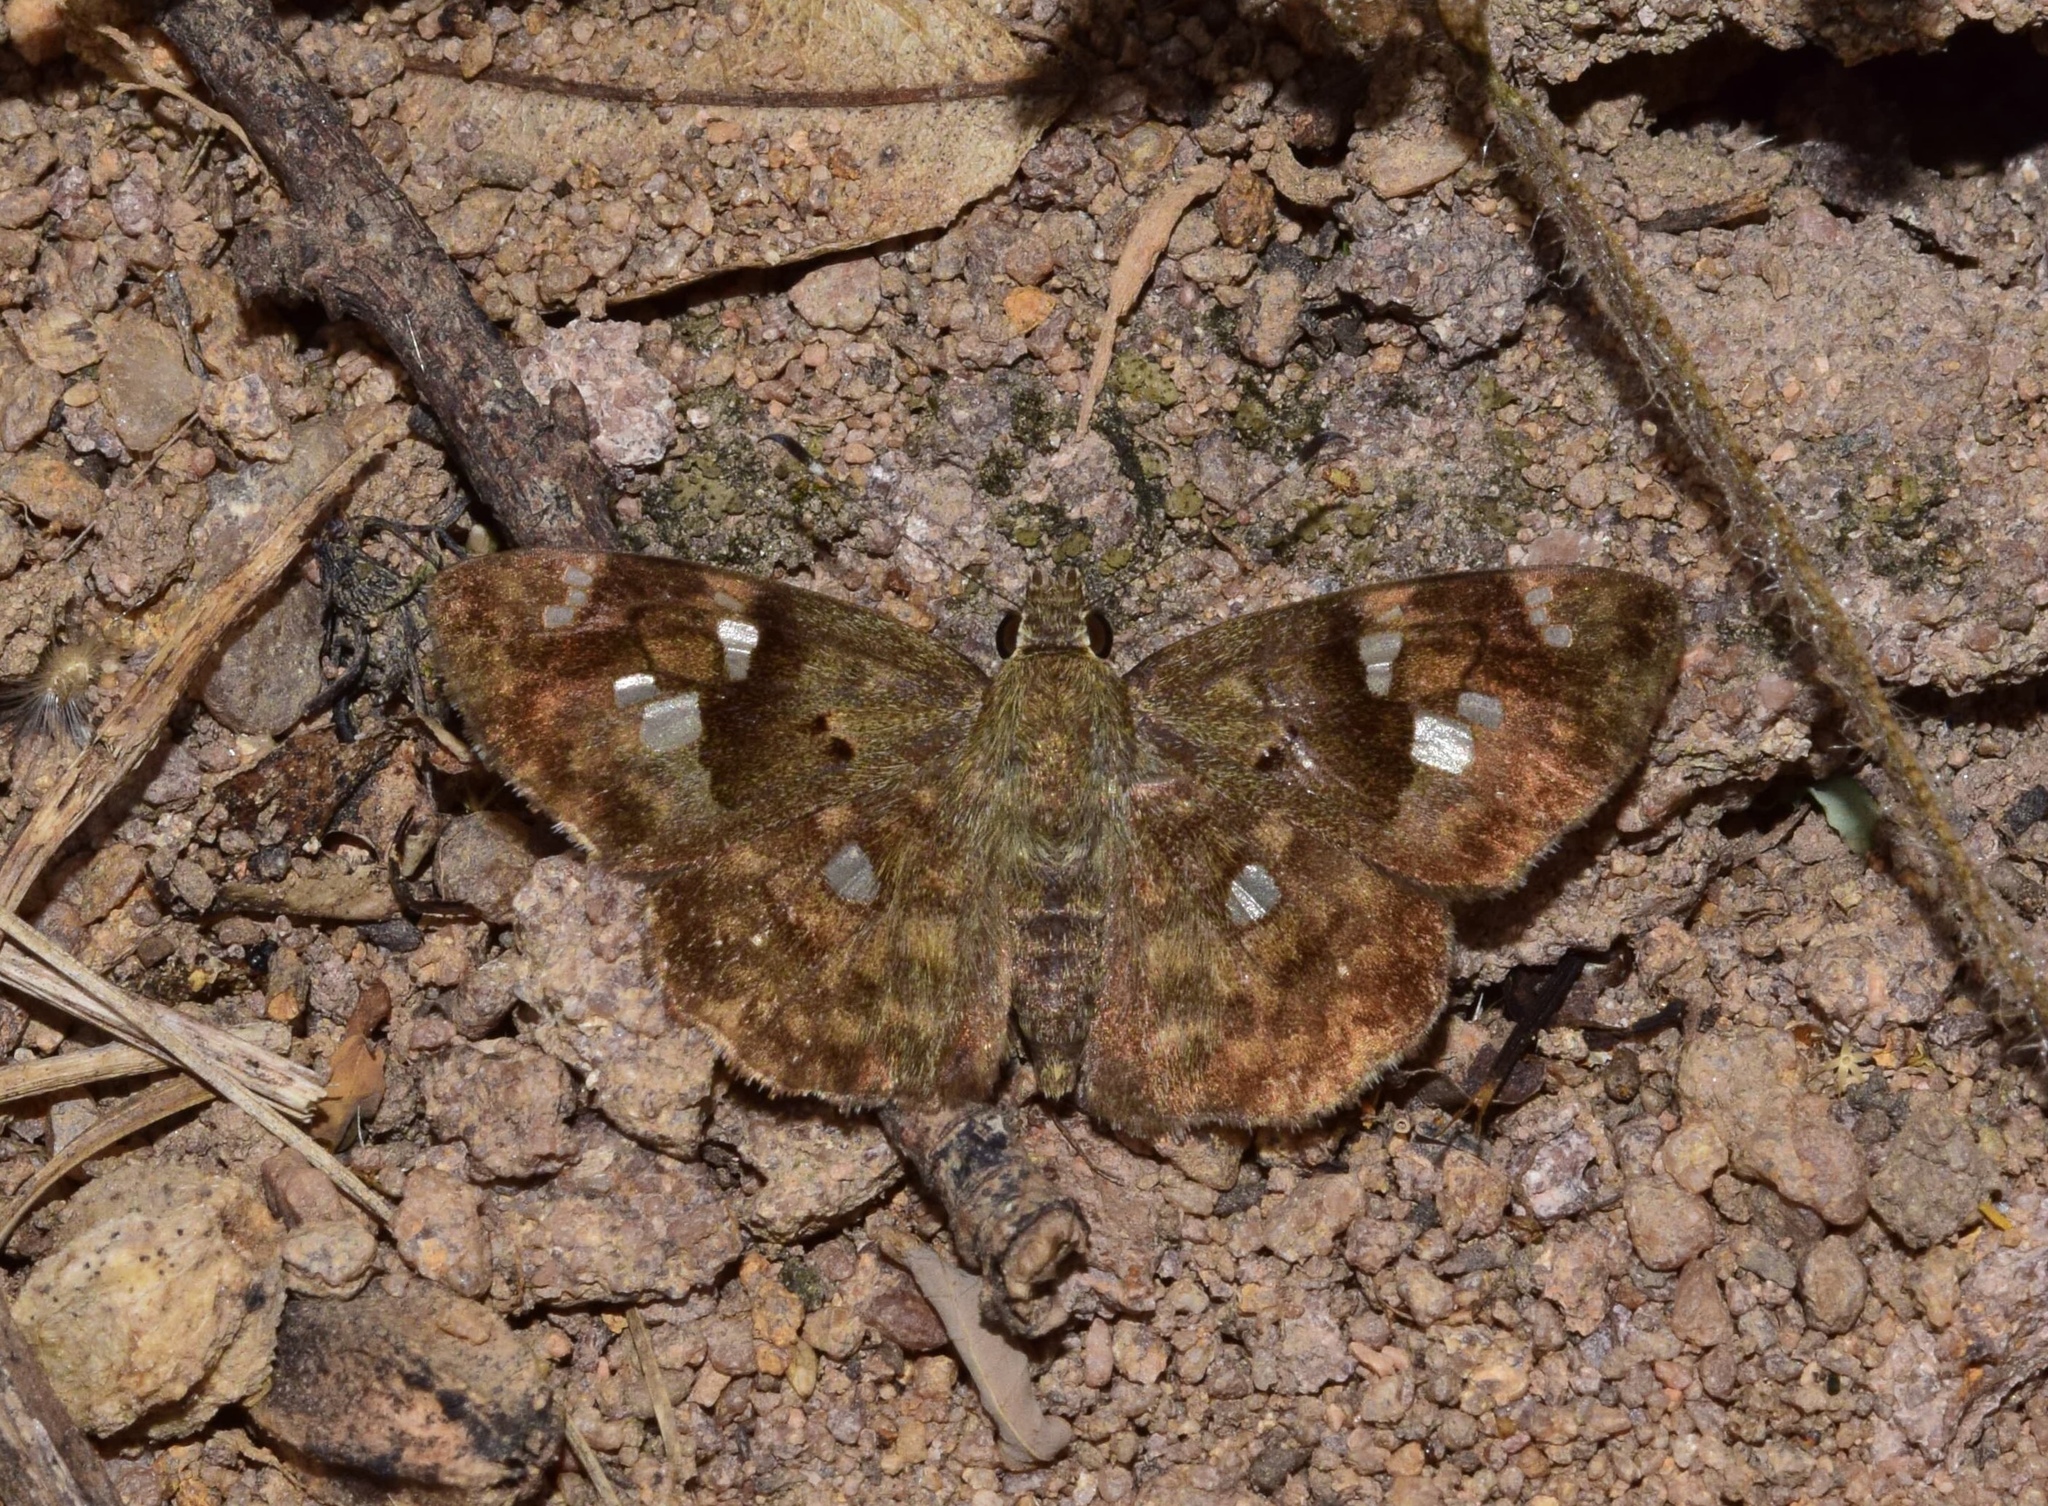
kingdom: Animalia
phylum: Arthropoda
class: Insecta
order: Lepidoptera
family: Hesperiidae
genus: Sarangesa
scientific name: Sarangesa motozi
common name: Forest elfin
